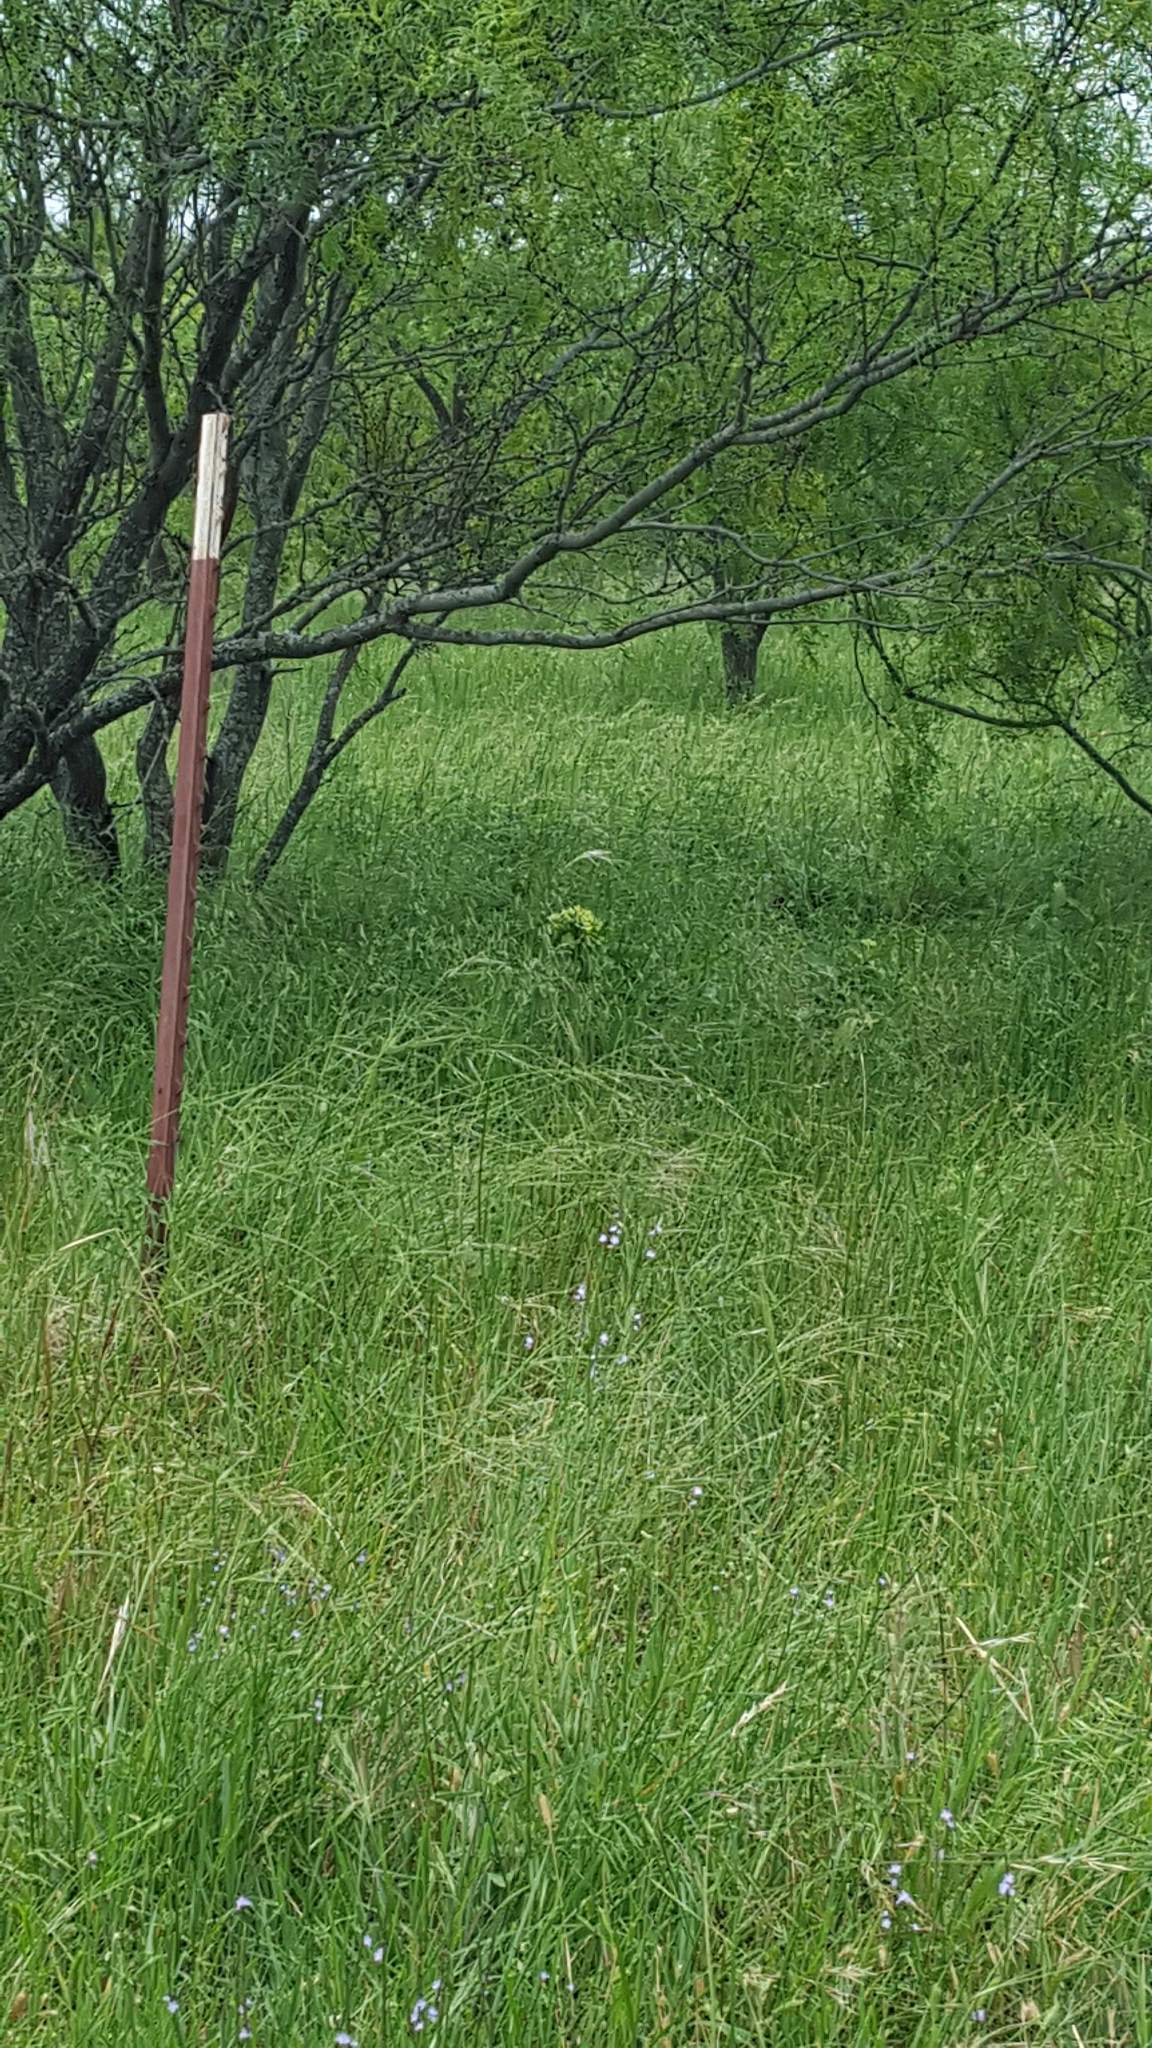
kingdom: Plantae
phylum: Tracheophyta
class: Magnoliopsida
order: Gentianales
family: Apocynaceae
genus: Asclepias
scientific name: Asclepias viridis
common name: Antelope-horns
